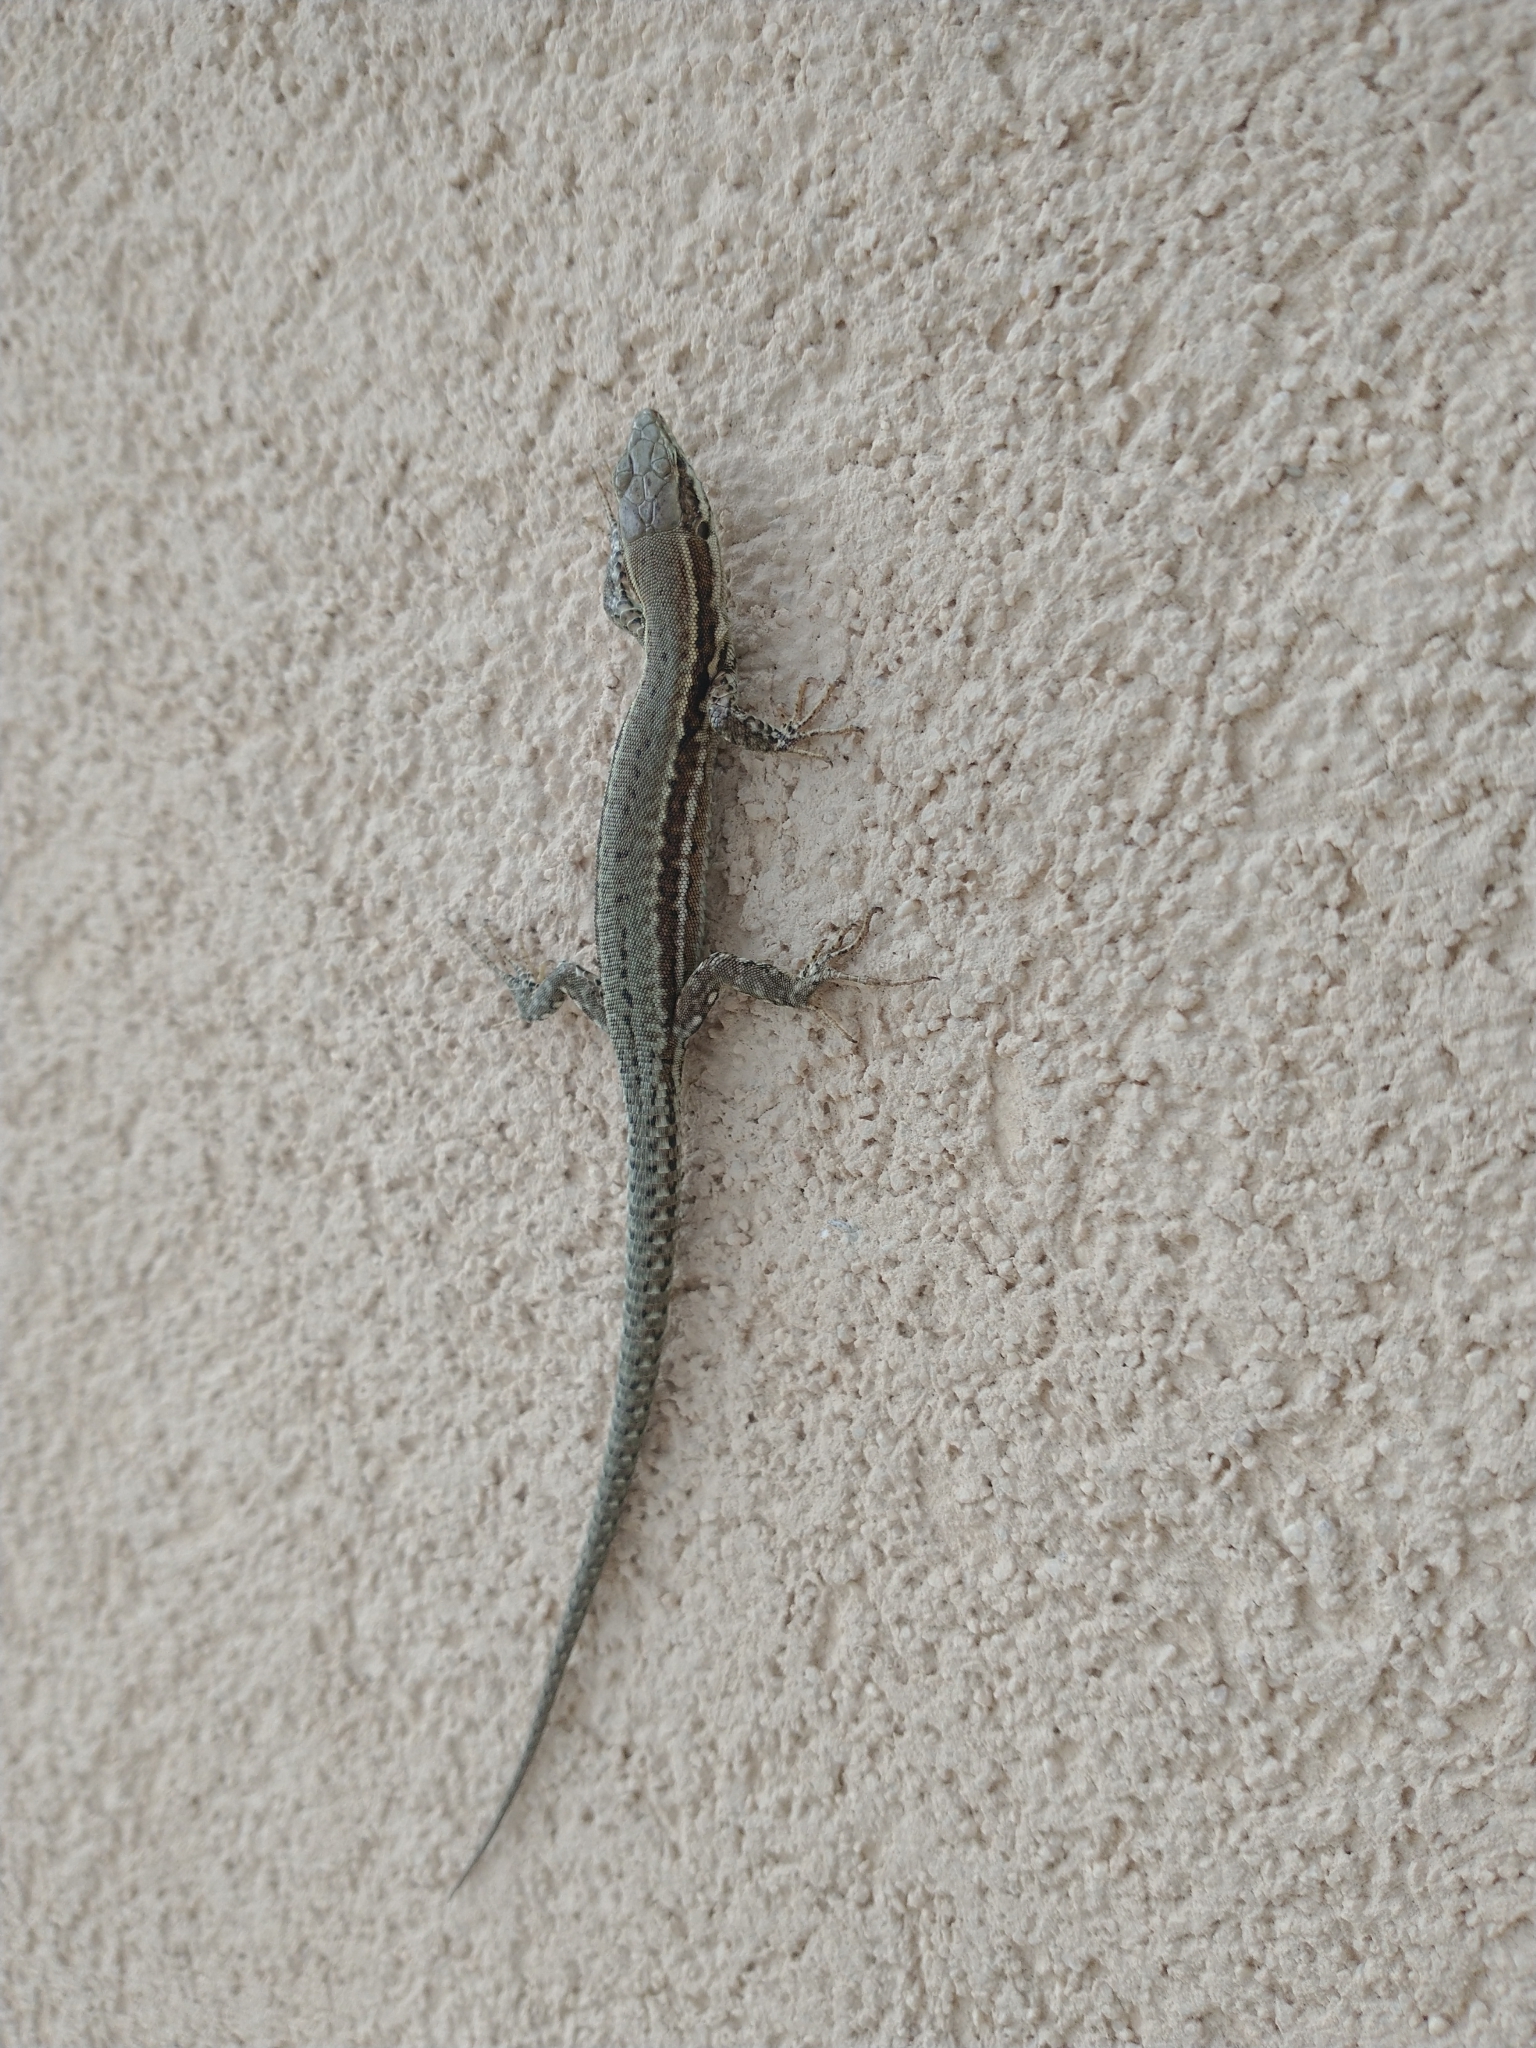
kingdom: Animalia
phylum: Chordata
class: Squamata
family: Lacertidae
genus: Podarcis
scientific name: Podarcis muralis
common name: Common wall lizard
